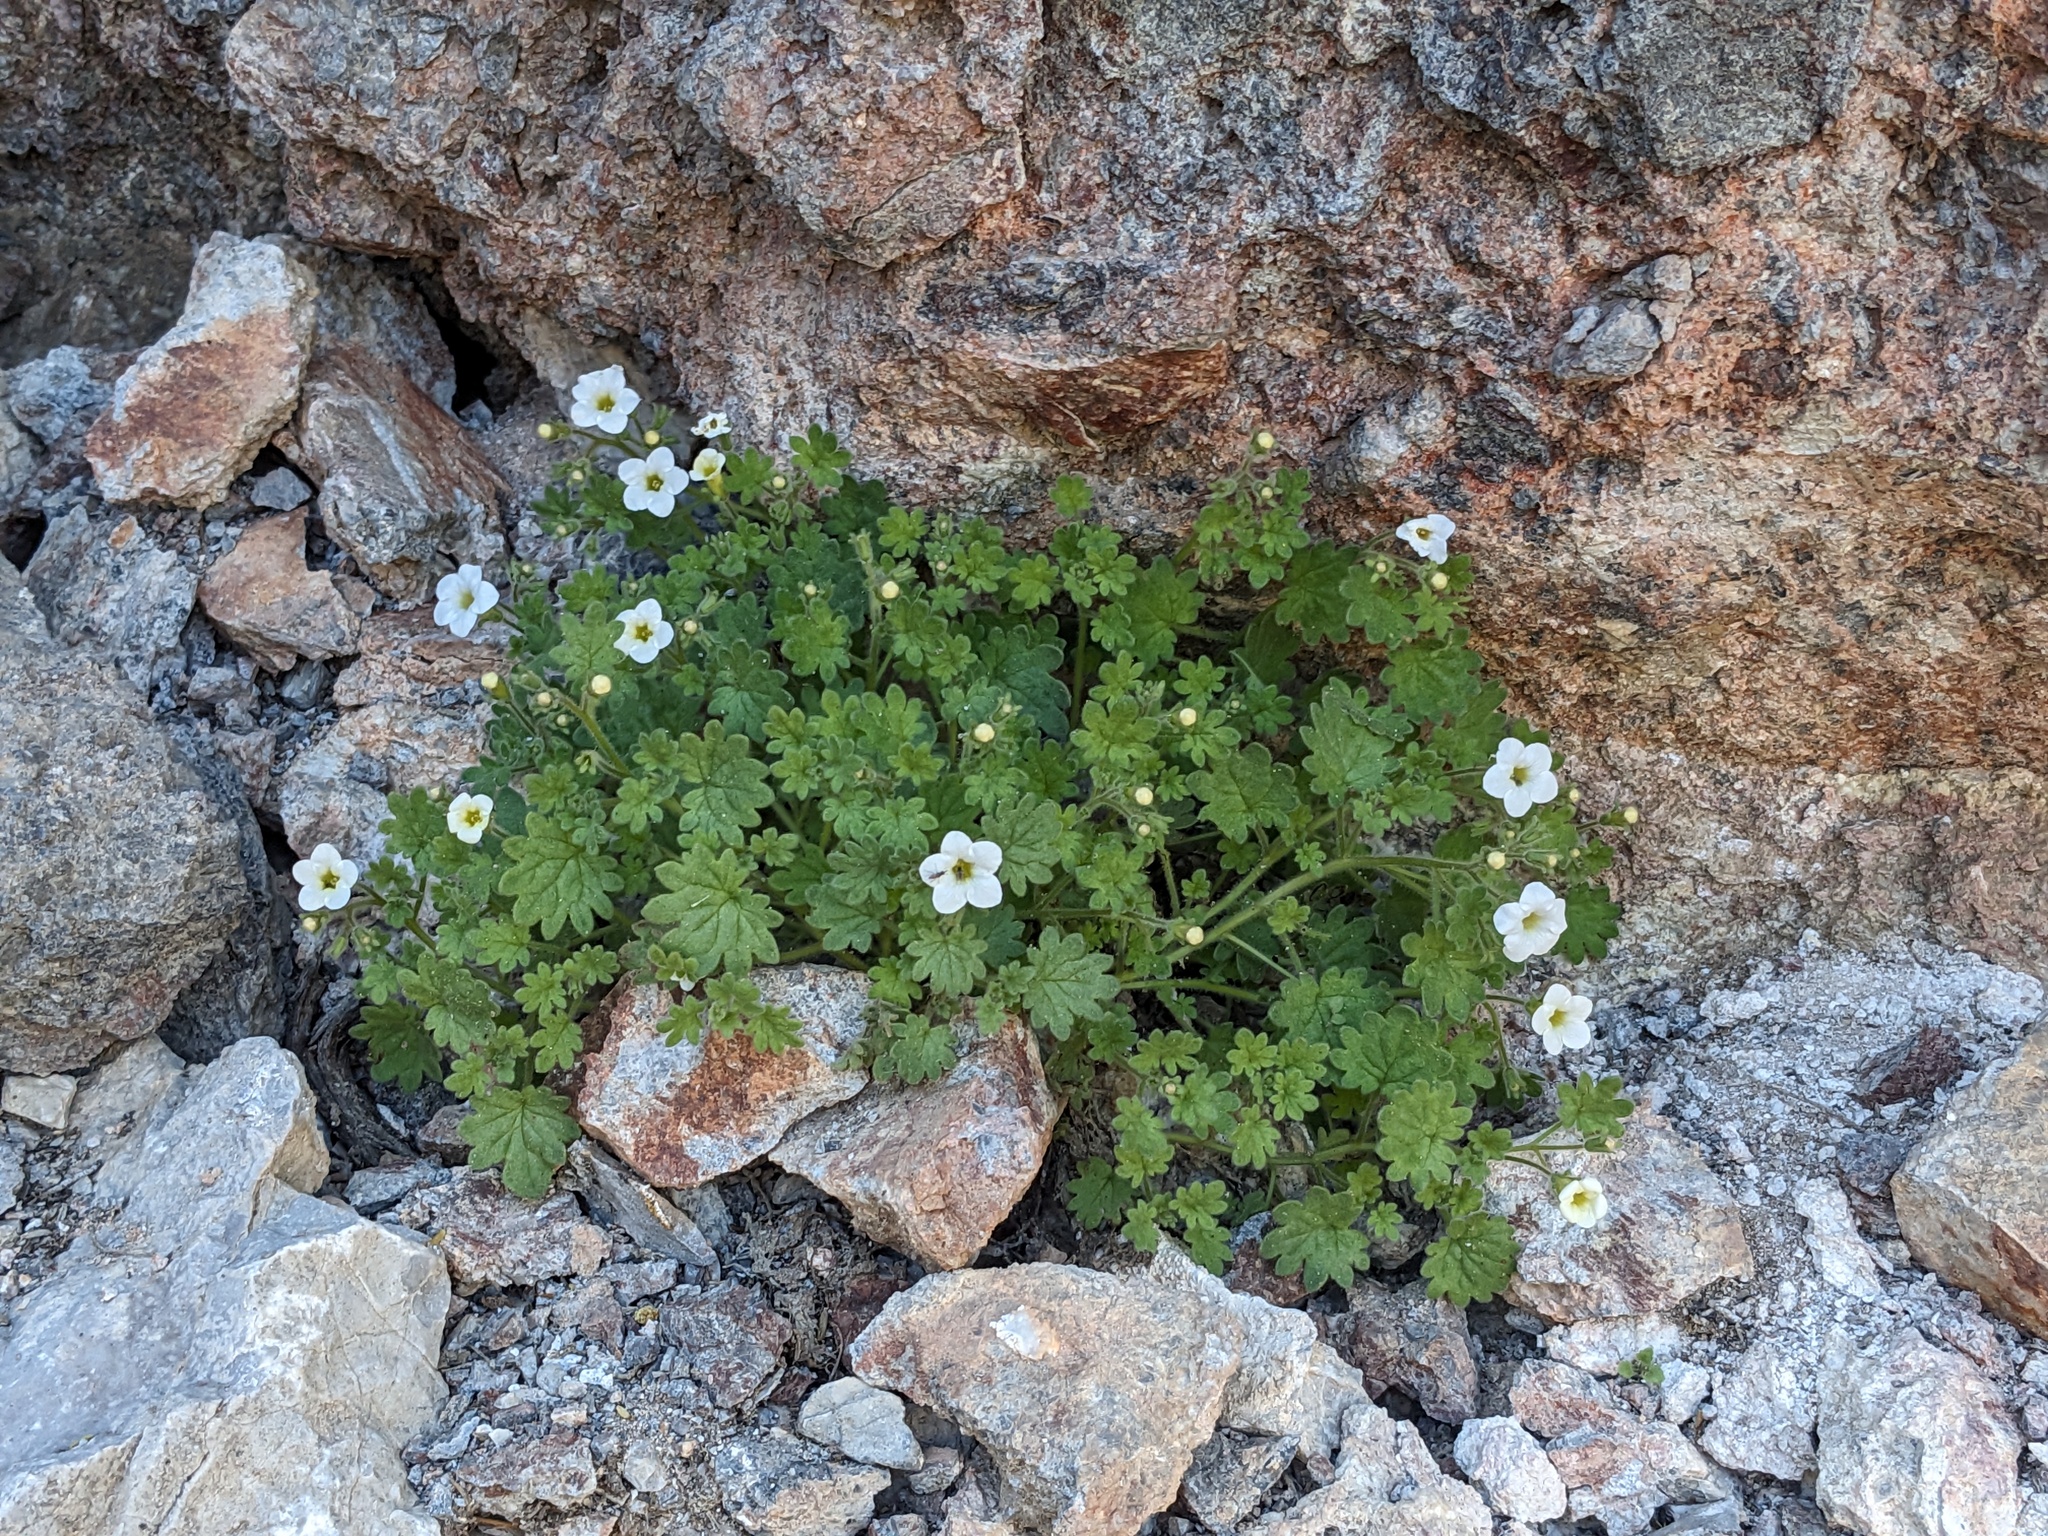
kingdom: Plantae
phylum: Tracheophyta
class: Magnoliopsida
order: Boraginales
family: Hydrophyllaceae
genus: Phacelia
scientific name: Phacelia perityloides
